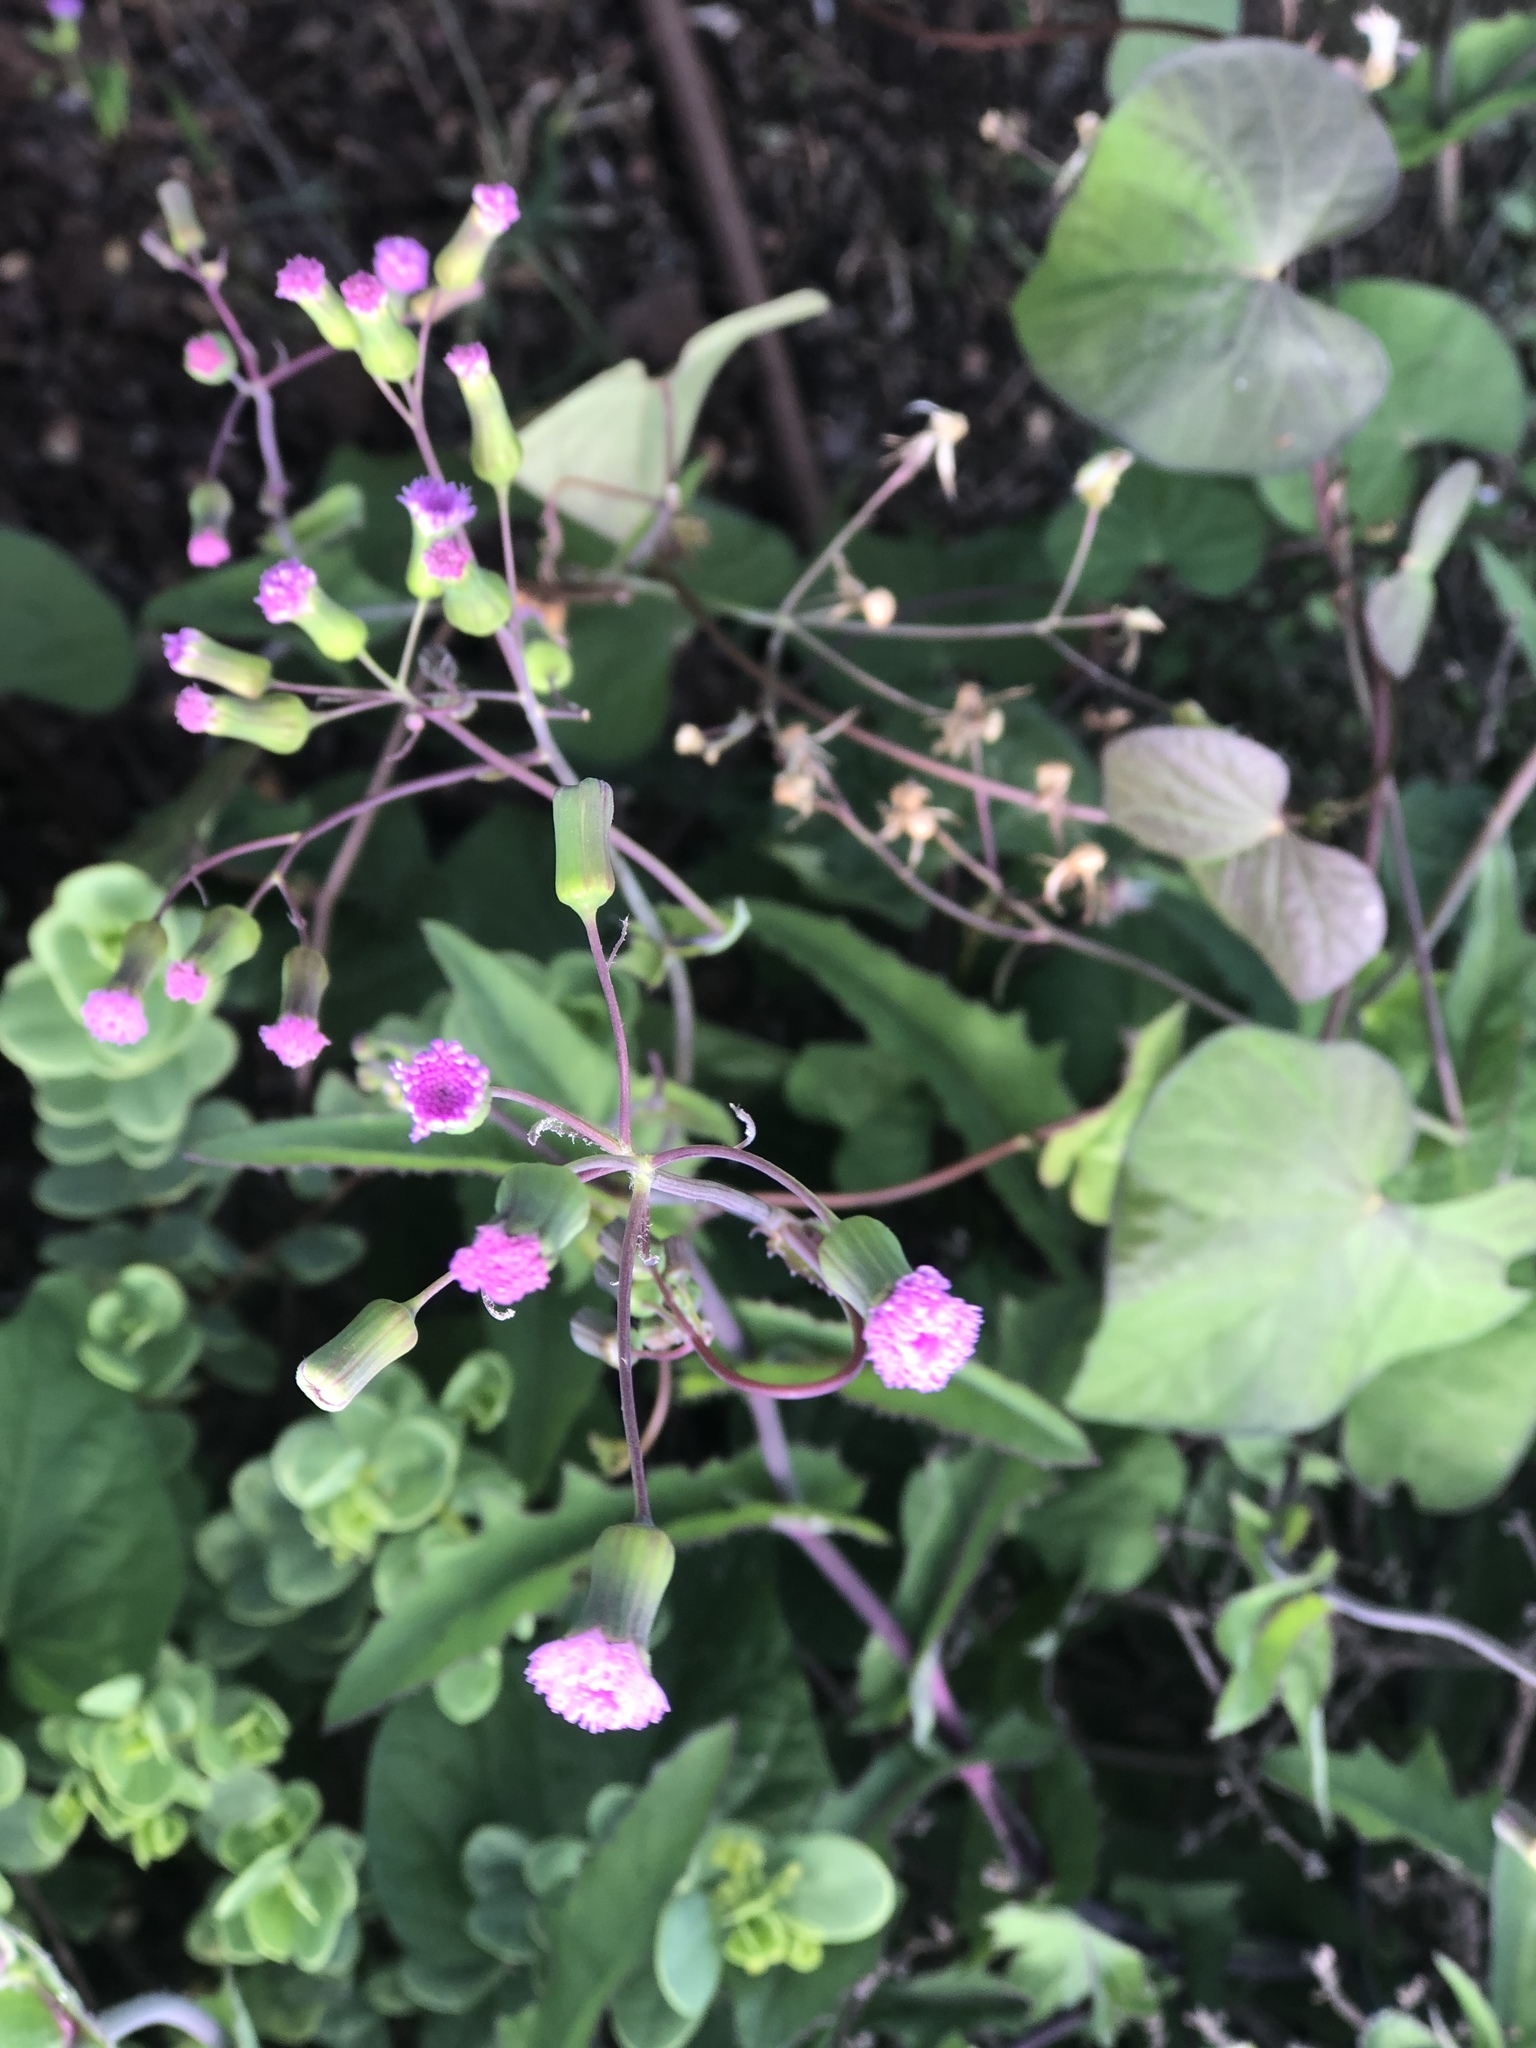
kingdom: Plantae
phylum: Tracheophyta
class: Magnoliopsida
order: Asterales
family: Asteraceae
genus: Emilia
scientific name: Emilia sonchifolia
